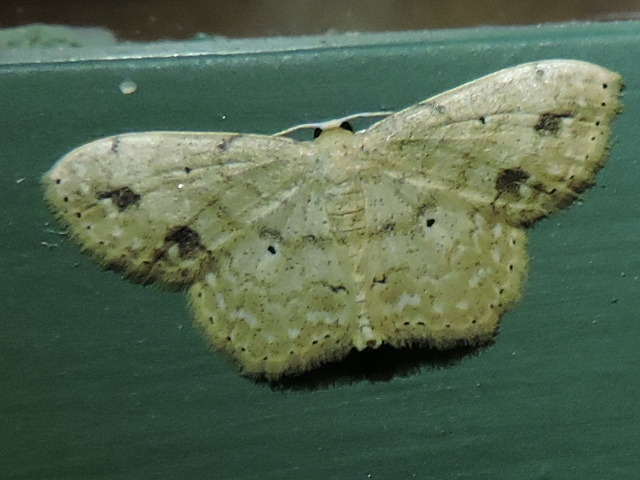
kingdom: Animalia
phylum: Arthropoda
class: Insecta
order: Lepidoptera
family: Geometridae
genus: Scopula
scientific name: Scopula compensata
